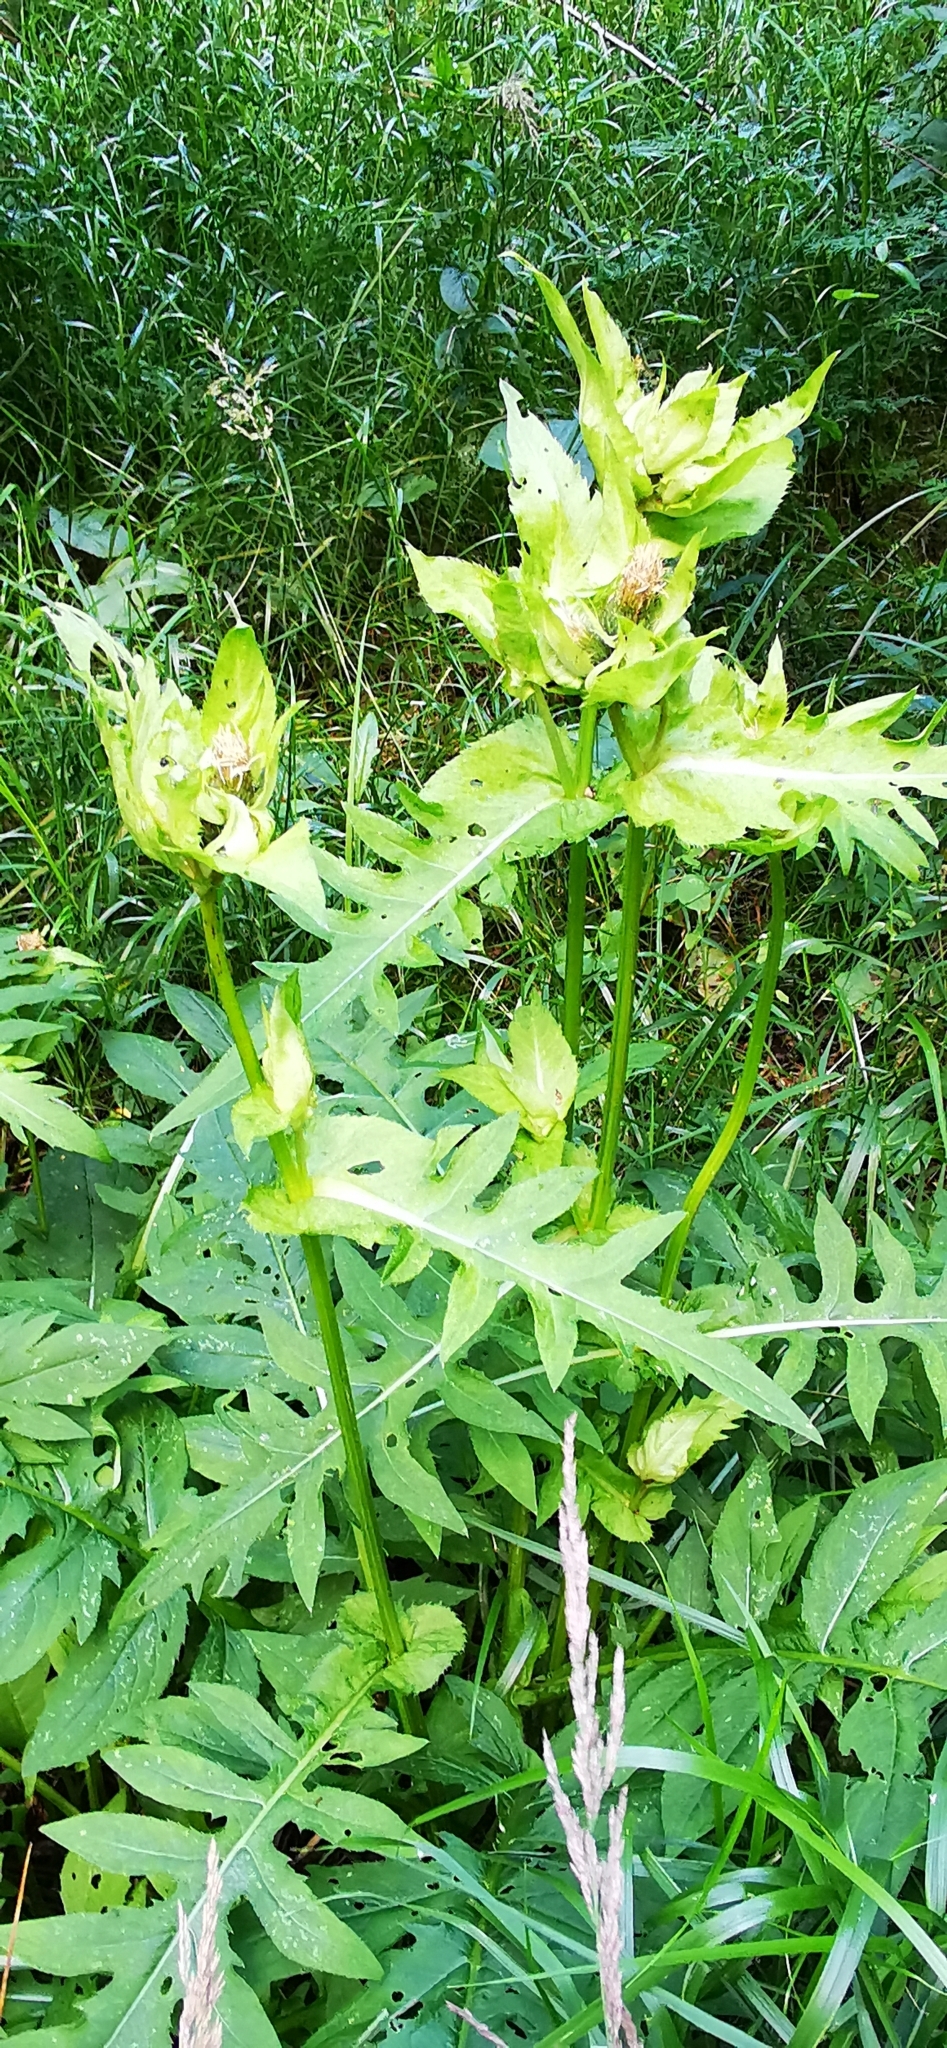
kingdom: Plantae
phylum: Tracheophyta
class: Magnoliopsida
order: Asterales
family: Asteraceae
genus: Cirsium
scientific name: Cirsium oleraceum
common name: Cabbage thistle
